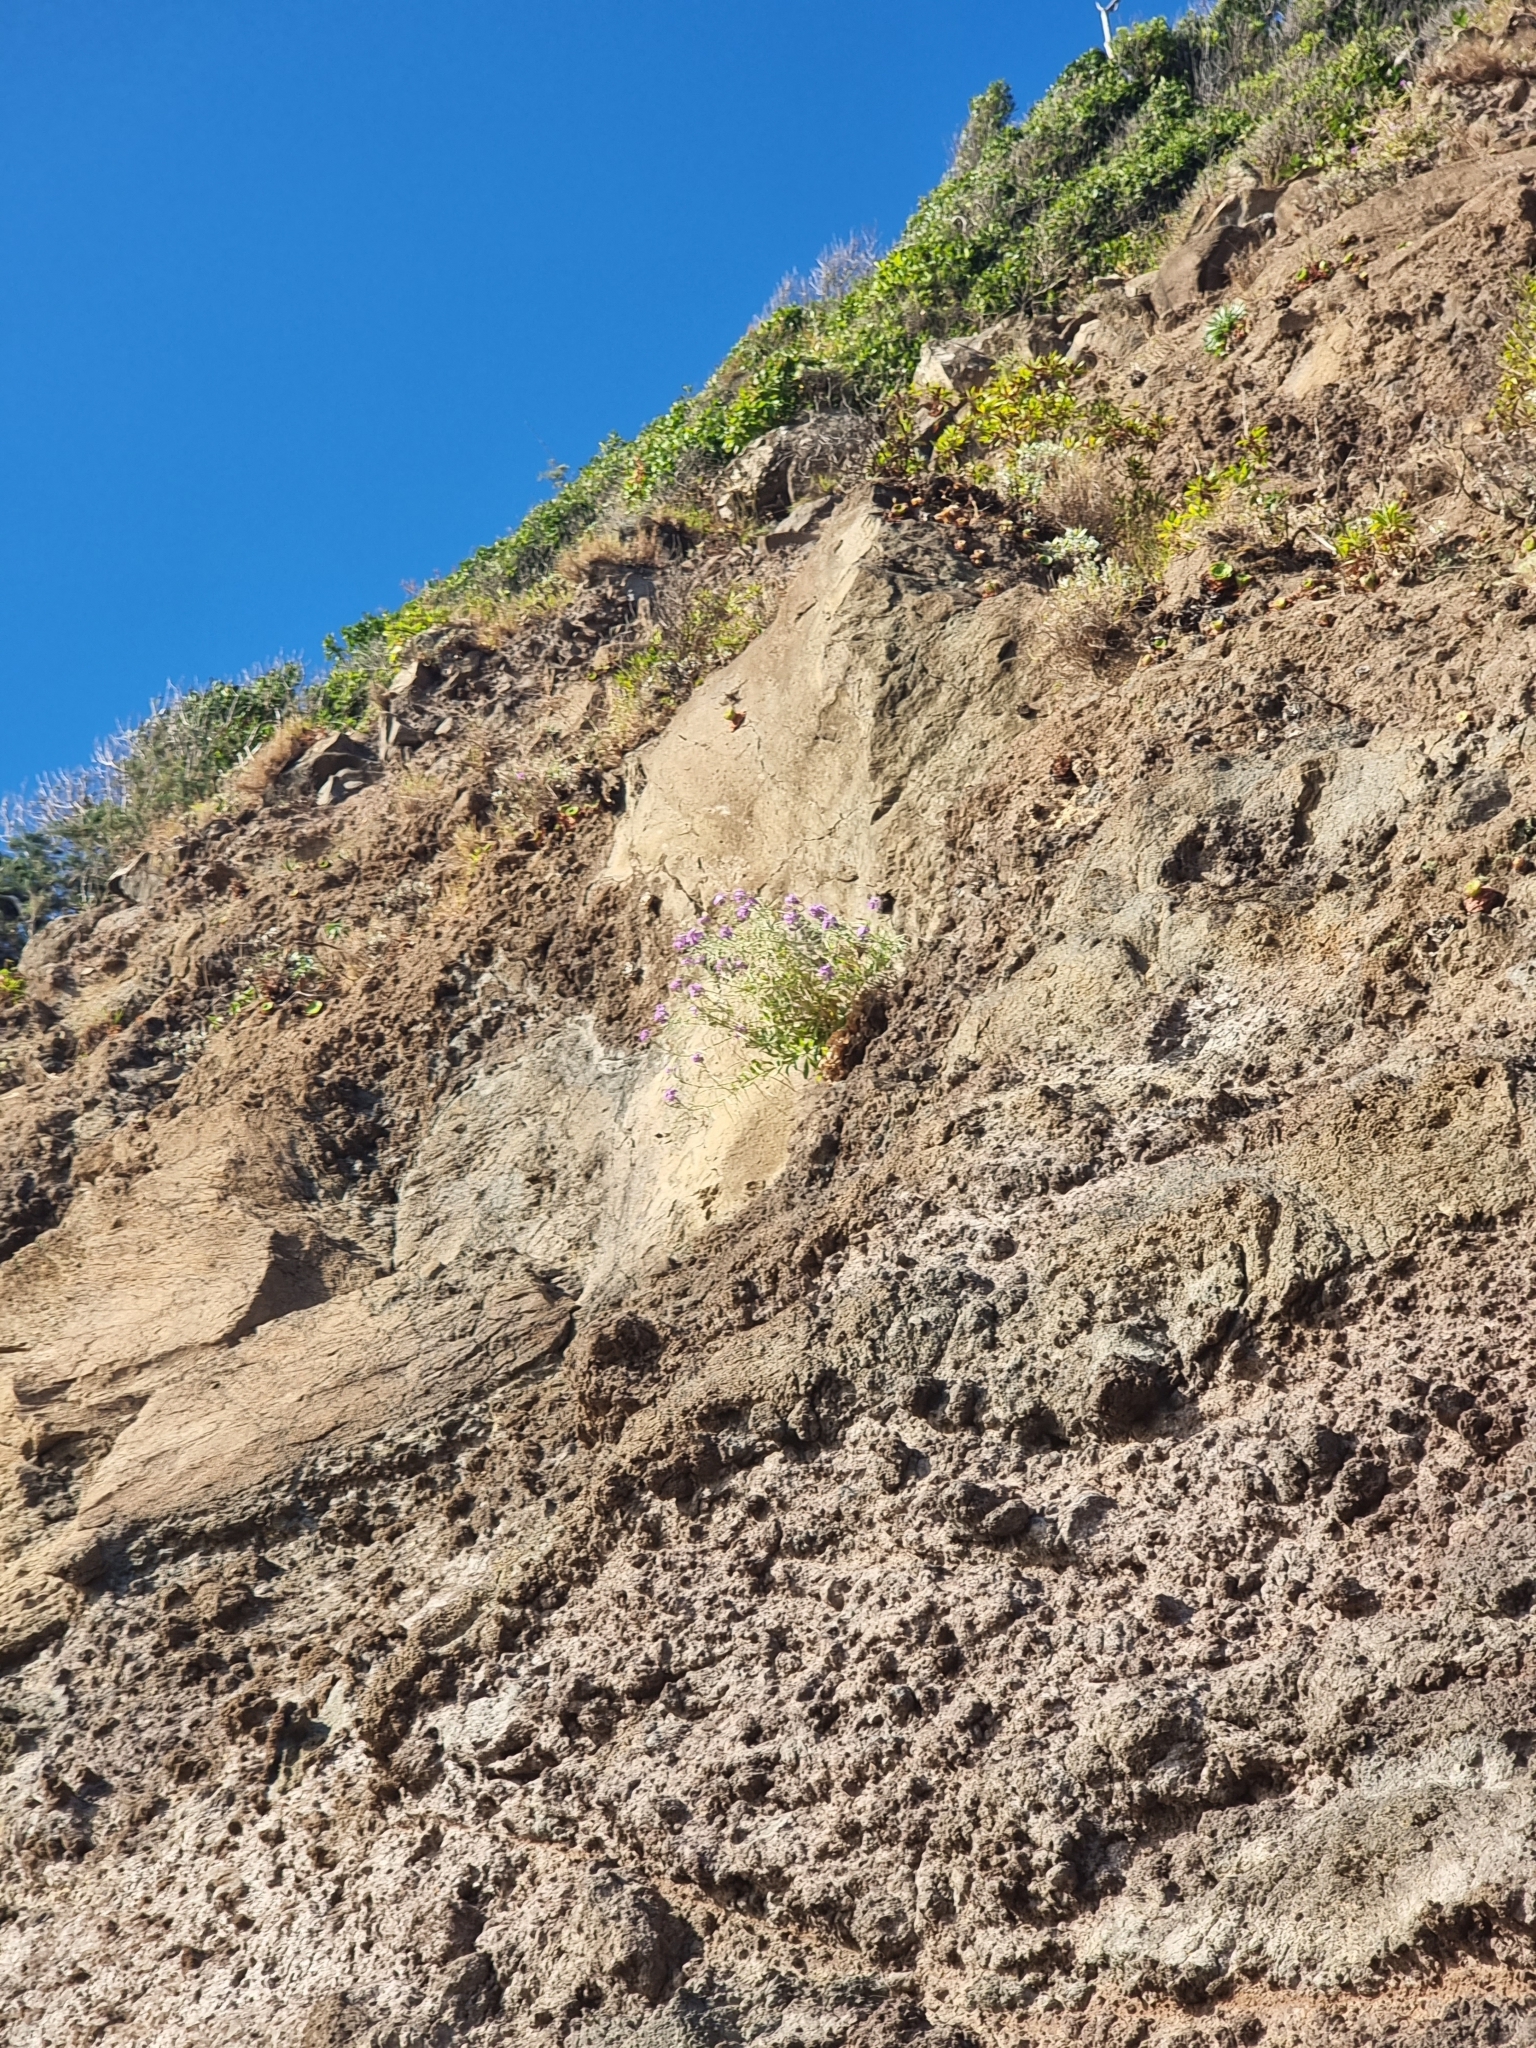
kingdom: Plantae
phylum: Tracheophyta
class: Magnoliopsida
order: Brassicales
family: Brassicaceae
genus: Matthiola
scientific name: Matthiola maderensis
